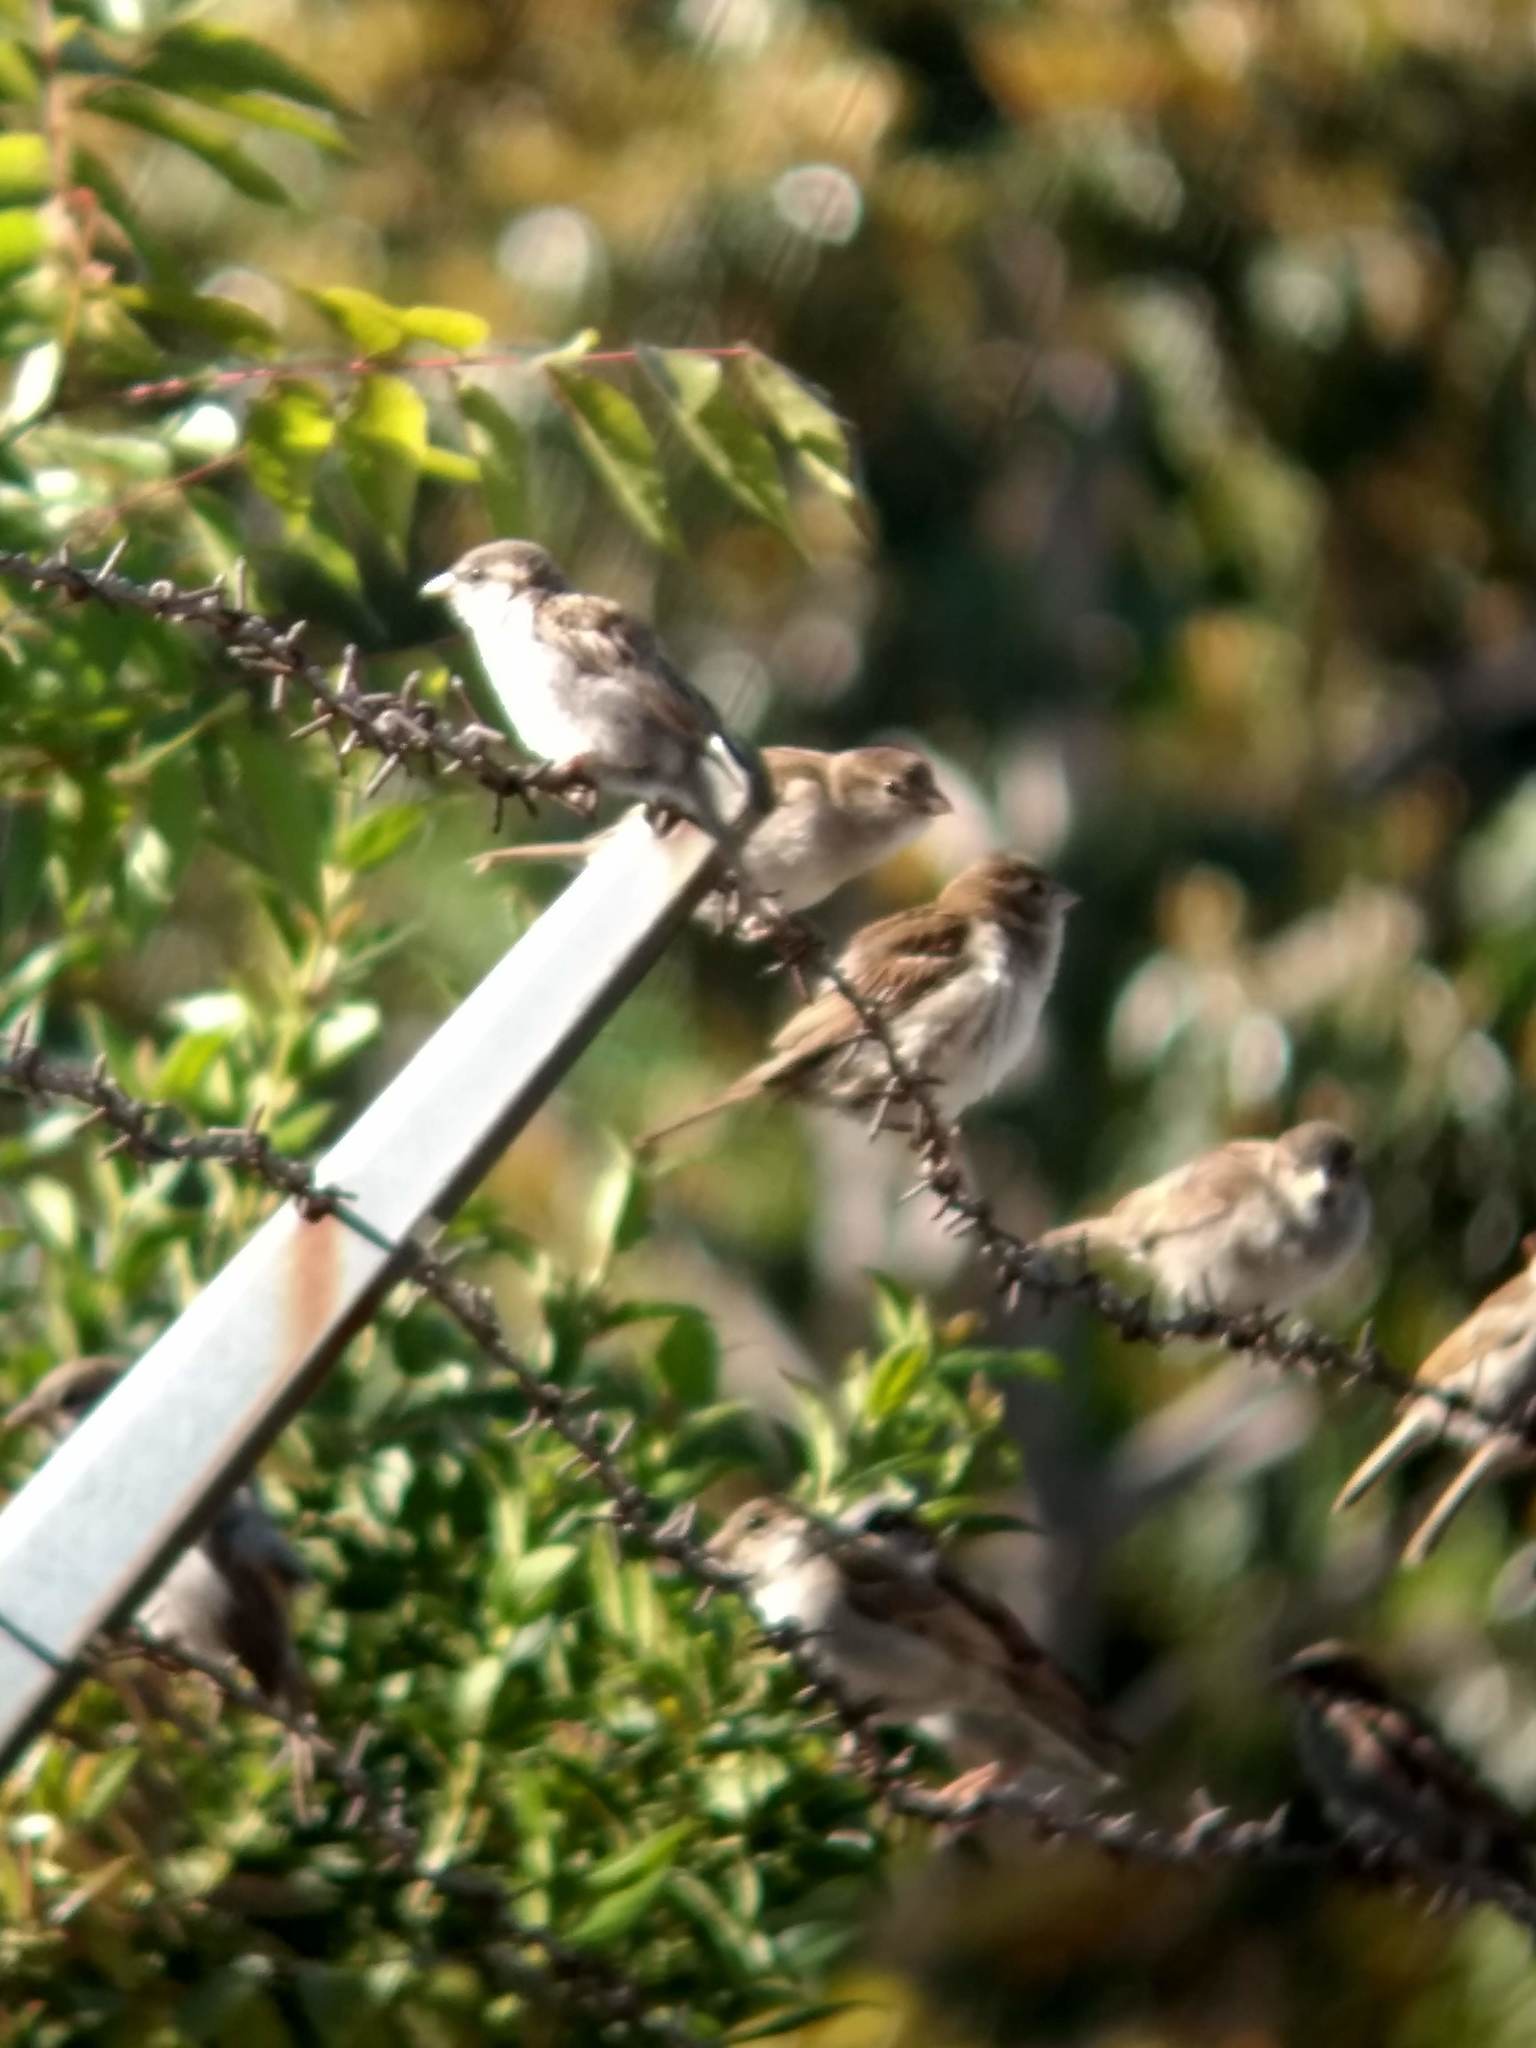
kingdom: Animalia
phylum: Chordata
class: Aves
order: Passeriformes
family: Passeridae
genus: Passer
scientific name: Passer domesticus
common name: House sparrow
